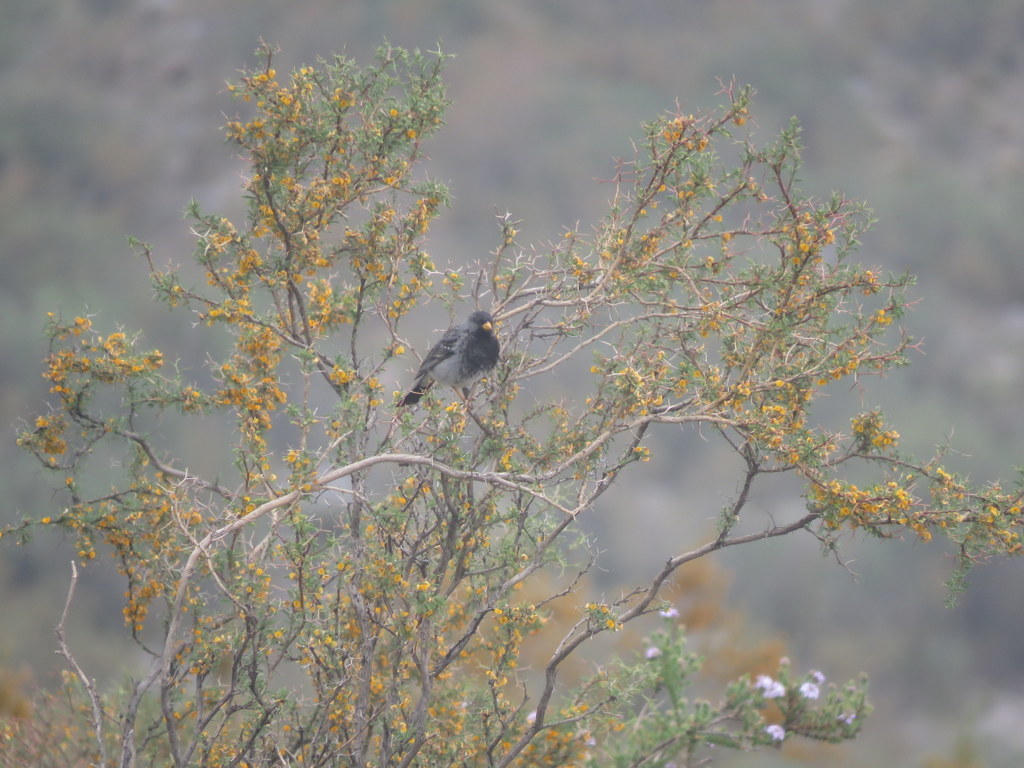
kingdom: Animalia
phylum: Chordata
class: Aves
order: Passeriformes
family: Thraupidae
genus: Rhopospina
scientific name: Rhopospina fruticeti
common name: Mourning sierra finch
